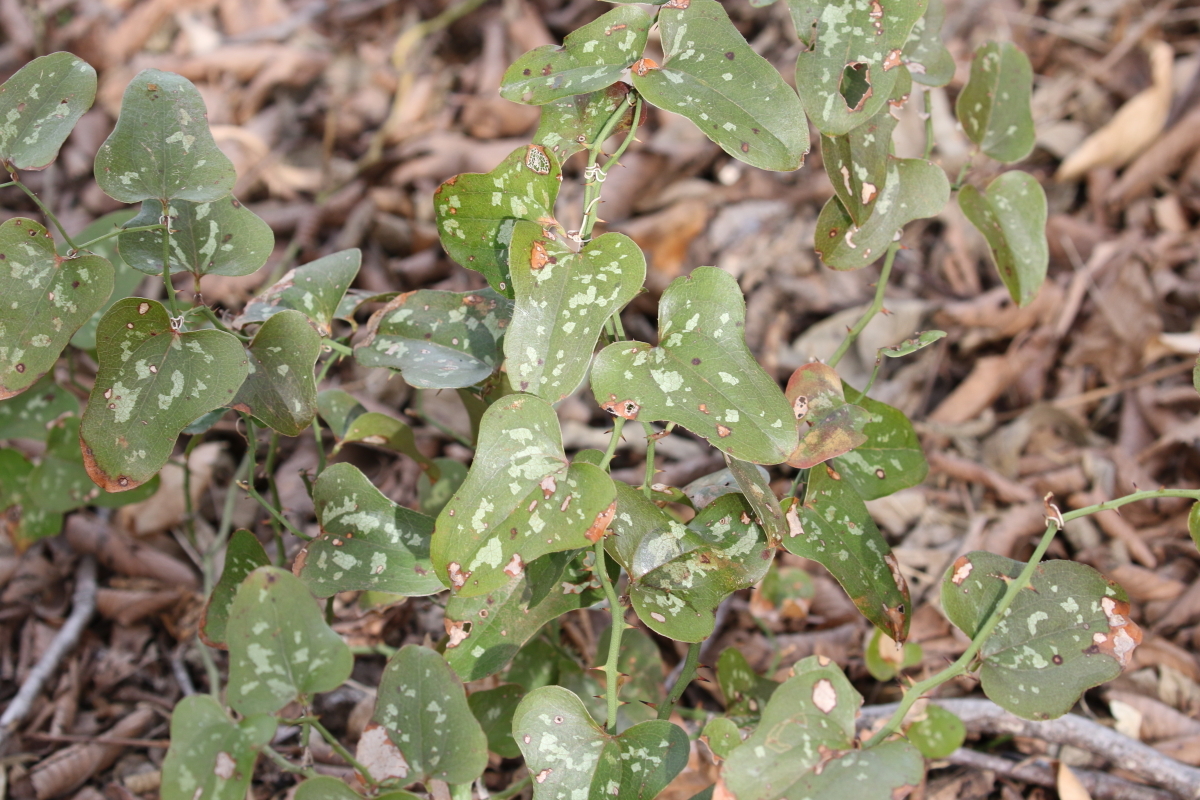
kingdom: Plantae
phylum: Tracheophyta
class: Liliopsida
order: Liliales
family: Smilacaceae
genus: Smilax
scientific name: Smilax bona-nox
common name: Catbrier
